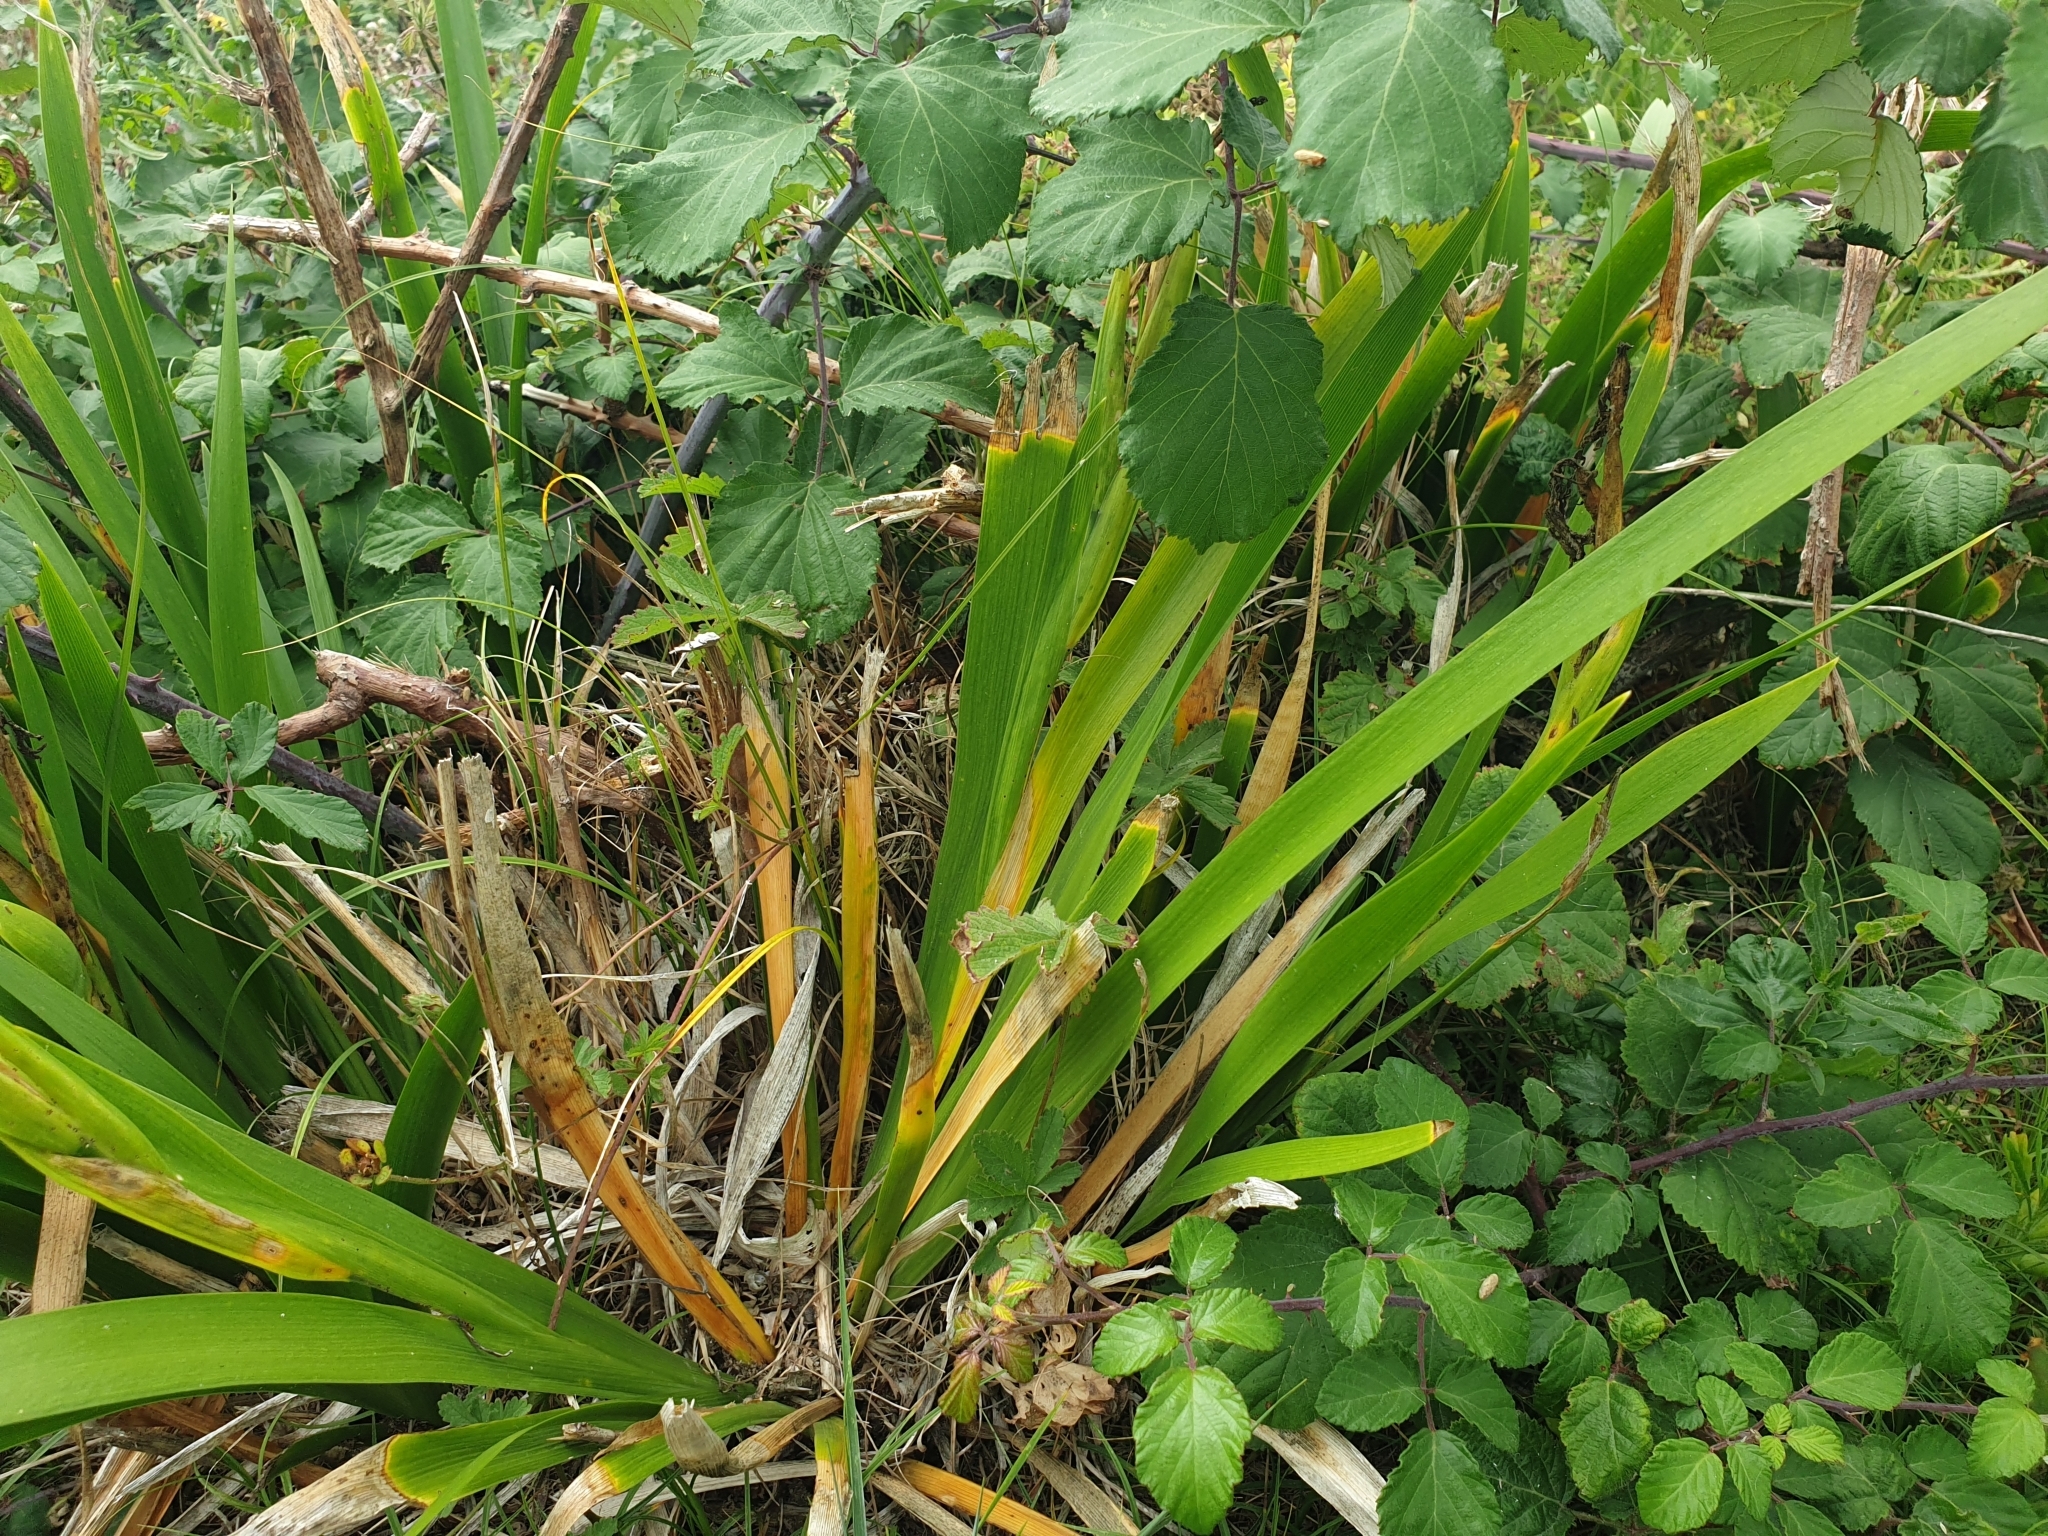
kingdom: Plantae
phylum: Tracheophyta
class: Liliopsida
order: Asparagales
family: Iridaceae
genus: Iris
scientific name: Iris foetidissima
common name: Stinking iris
